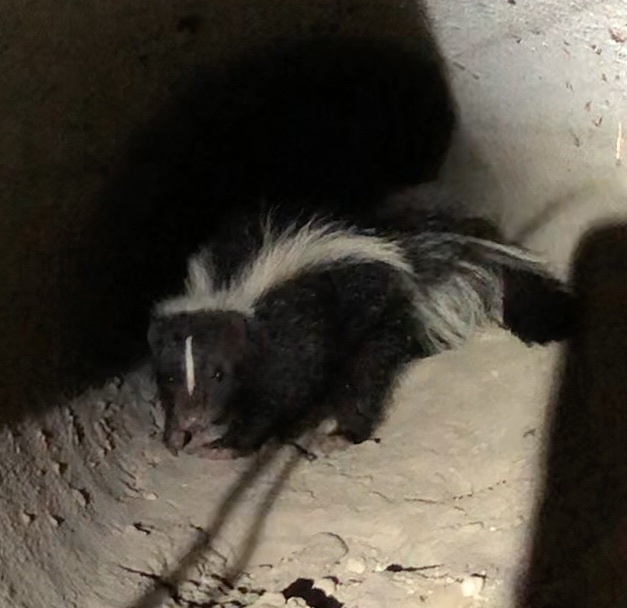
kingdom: Animalia
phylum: Chordata
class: Mammalia
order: Carnivora
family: Mephitidae
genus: Mephitis
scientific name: Mephitis mephitis
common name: Striped skunk
